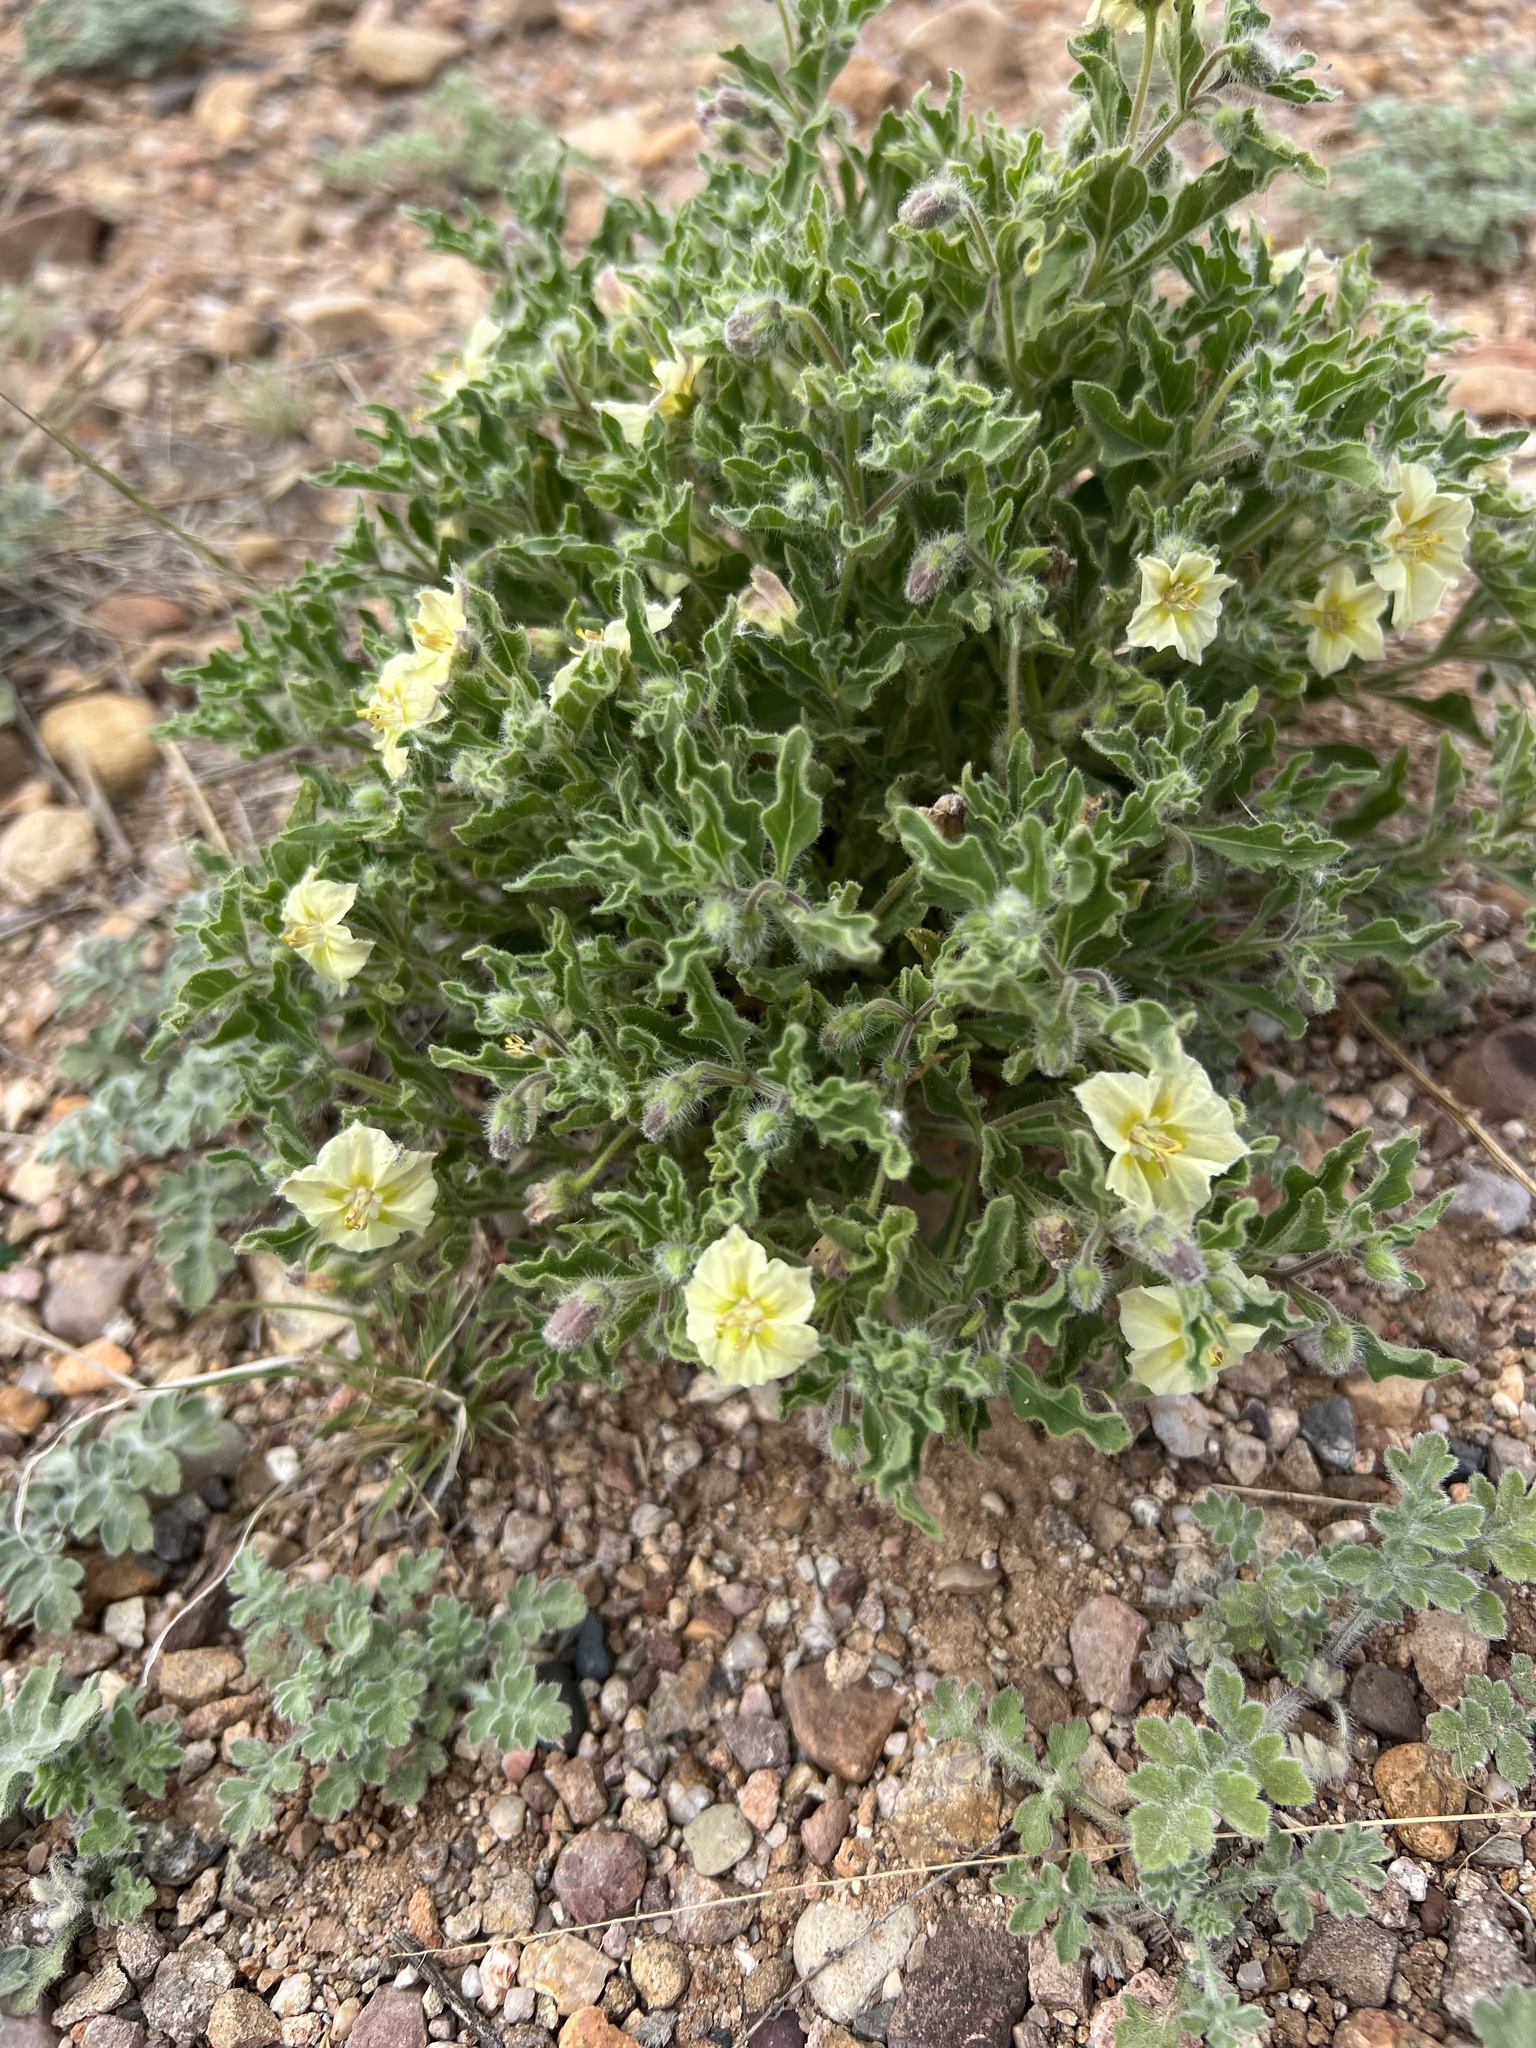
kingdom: Plantae
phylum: Tracheophyta
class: Magnoliopsida
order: Solanales
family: Solanaceae
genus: Chamaesaracha
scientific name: Chamaesaracha sordida
